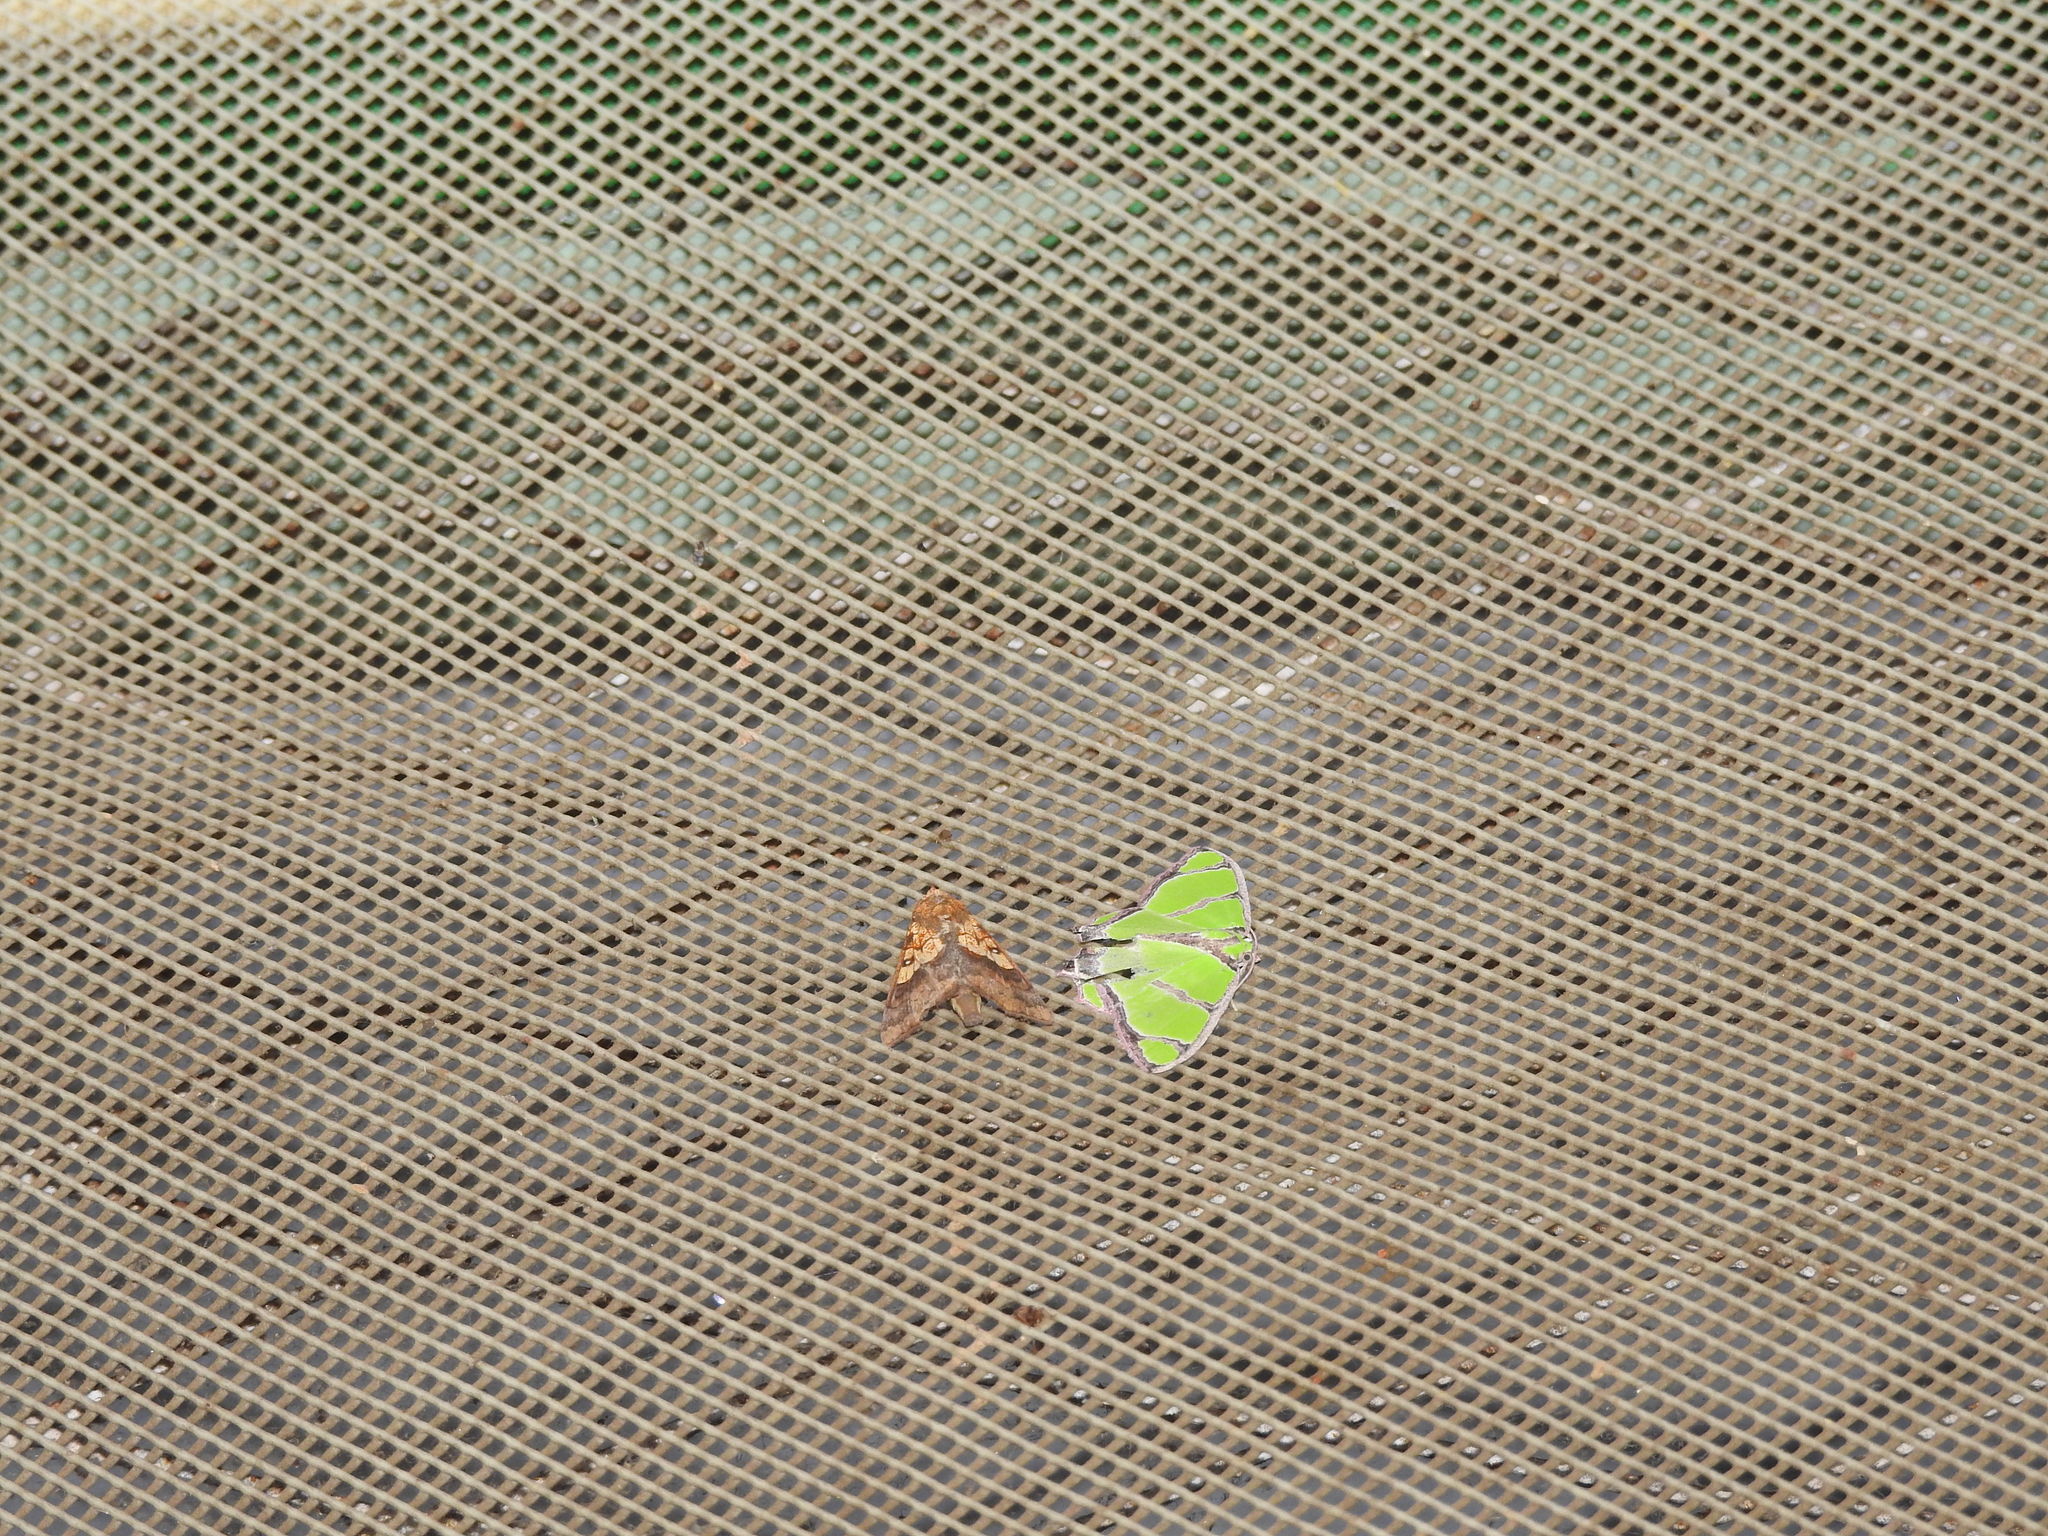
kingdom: Animalia
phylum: Arthropoda
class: Insecta
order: Lepidoptera
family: Erebidae
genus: Anomis
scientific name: Anomis flava
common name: Moth
